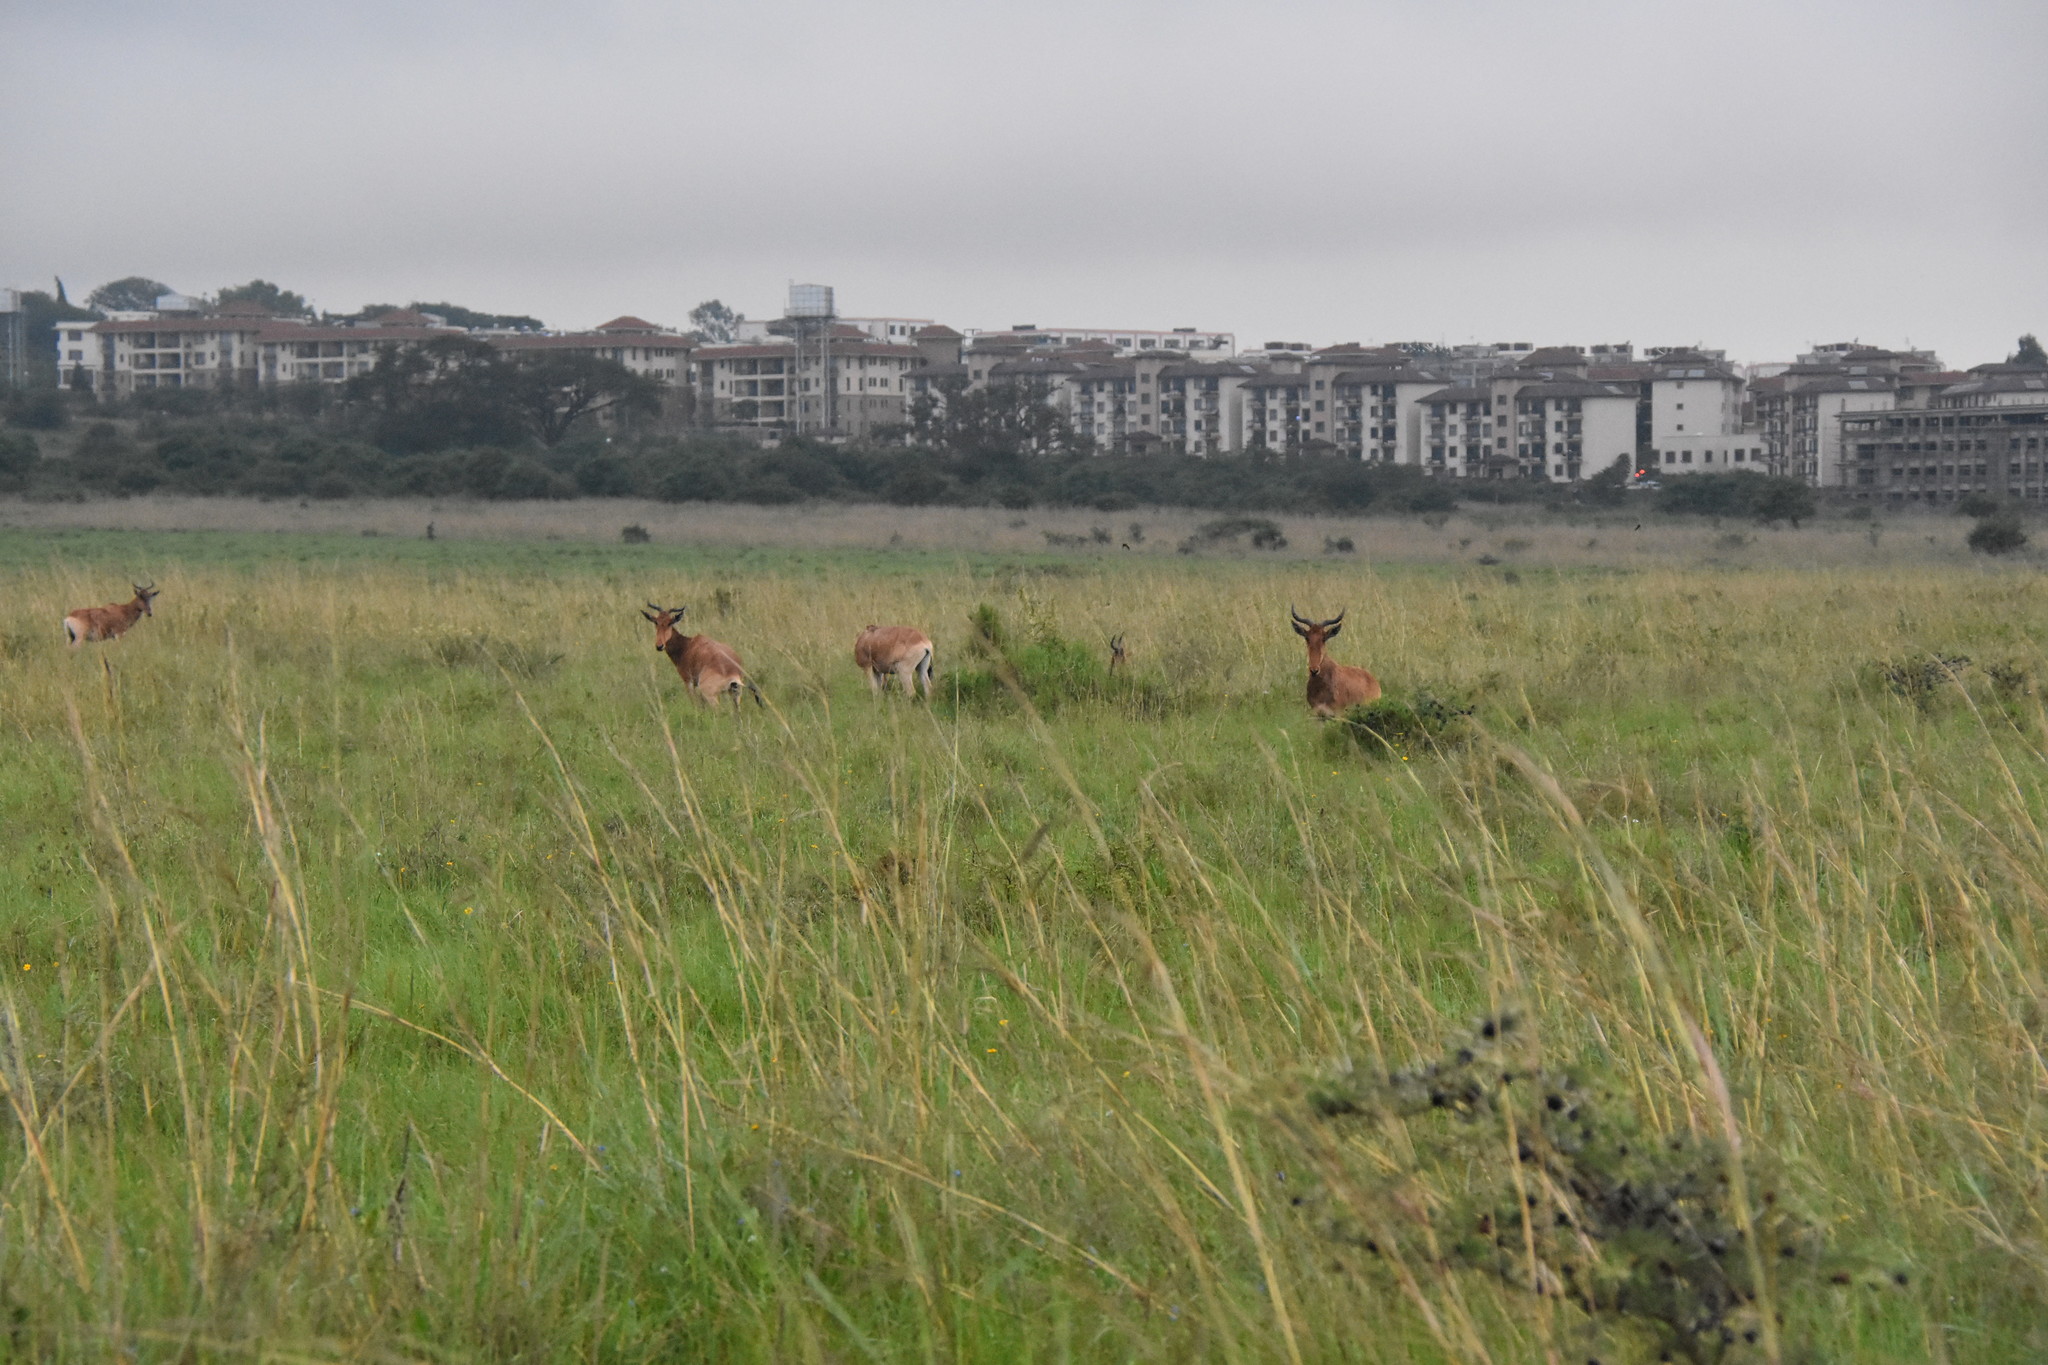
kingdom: Animalia
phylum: Chordata
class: Mammalia
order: Artiodactyla
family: Bovidae
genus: Alcelaphus
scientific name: Alcelaphus buselaphus
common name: Hartebeest
